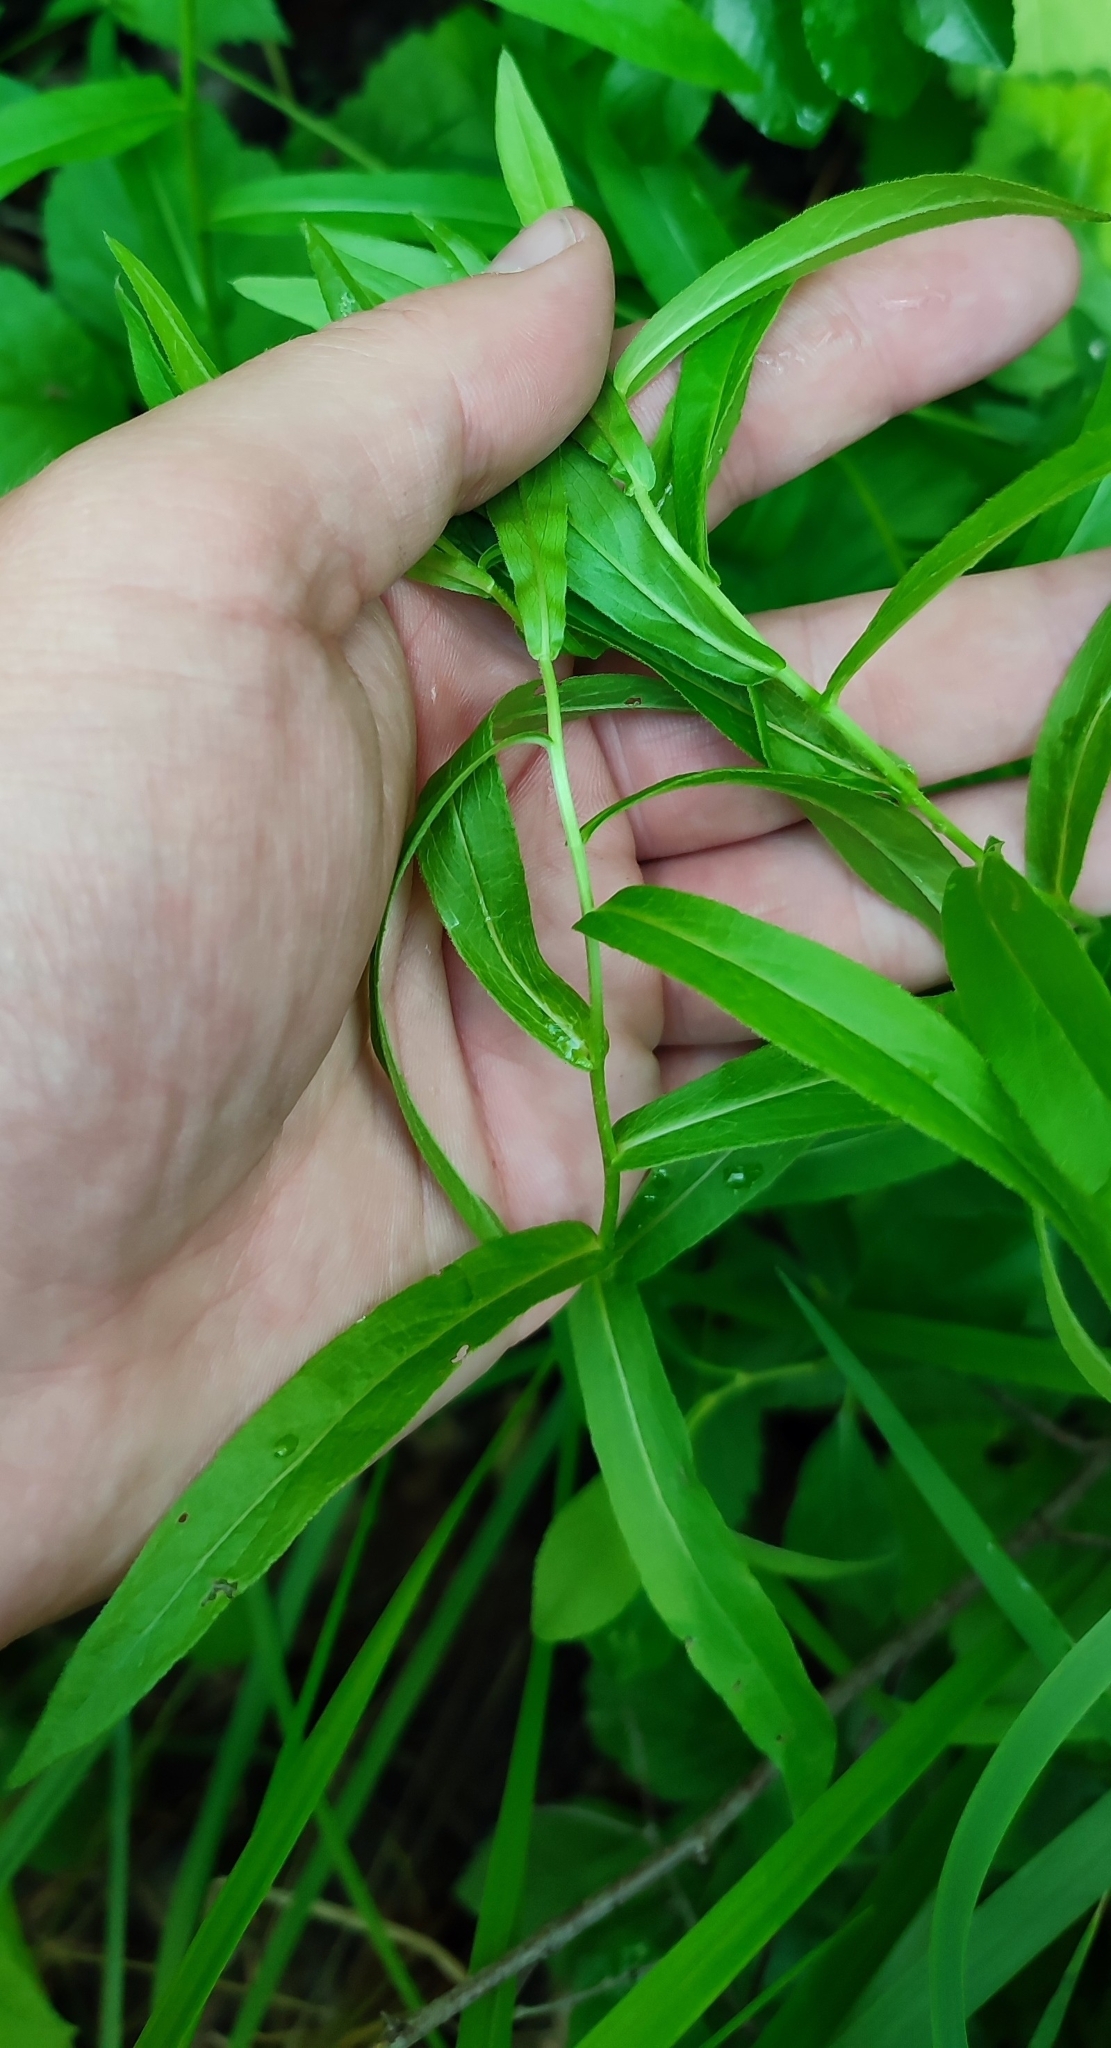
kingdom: Plantae
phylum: Tracheophyta
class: Magnoliopsida
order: Asterales
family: Asteraceae
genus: Pentanema
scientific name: Pentanema salicinum
